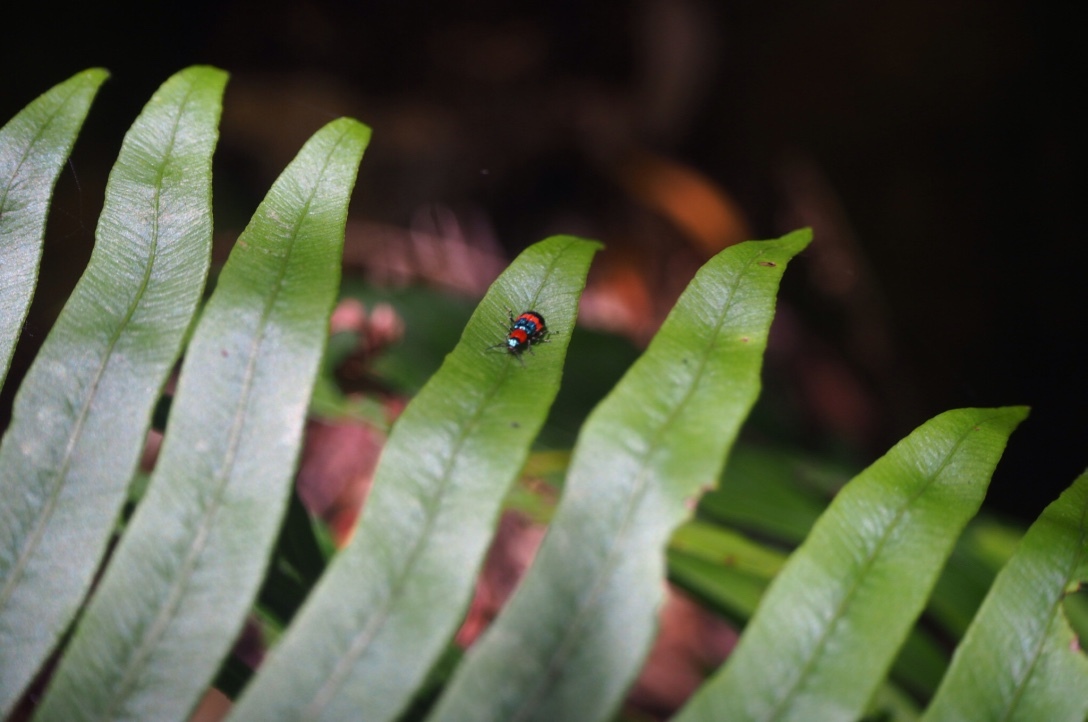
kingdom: Animalia
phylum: Arthropoda
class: Insecta
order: Coleoptera
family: Melyridae
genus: Dicranolaius
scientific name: Dicranolaius bellulus
